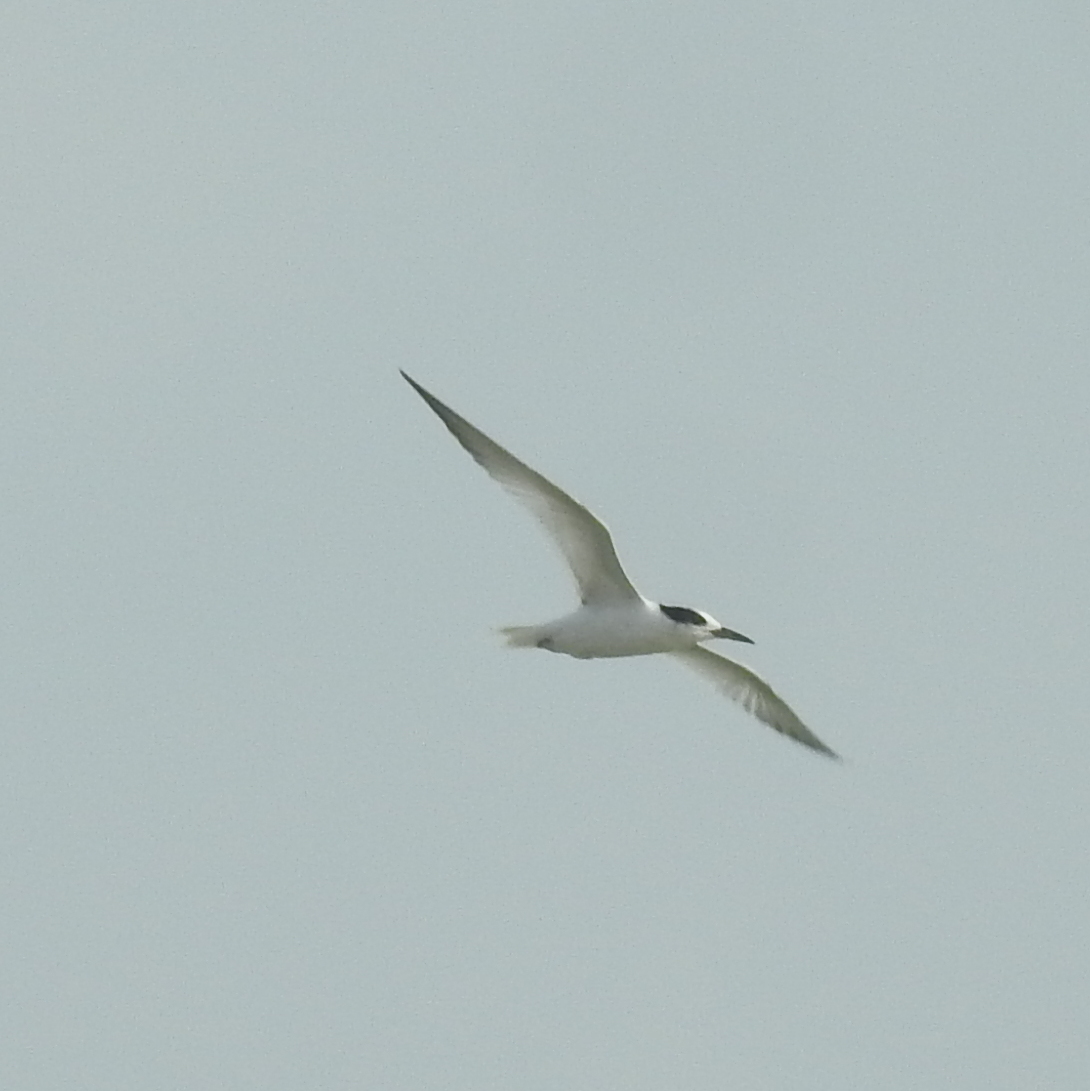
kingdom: Animalia
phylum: Chordata
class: Aves
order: Charadriiformes
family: Laridae
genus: Sternula
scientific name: Sternula albifrons
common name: Little tern
